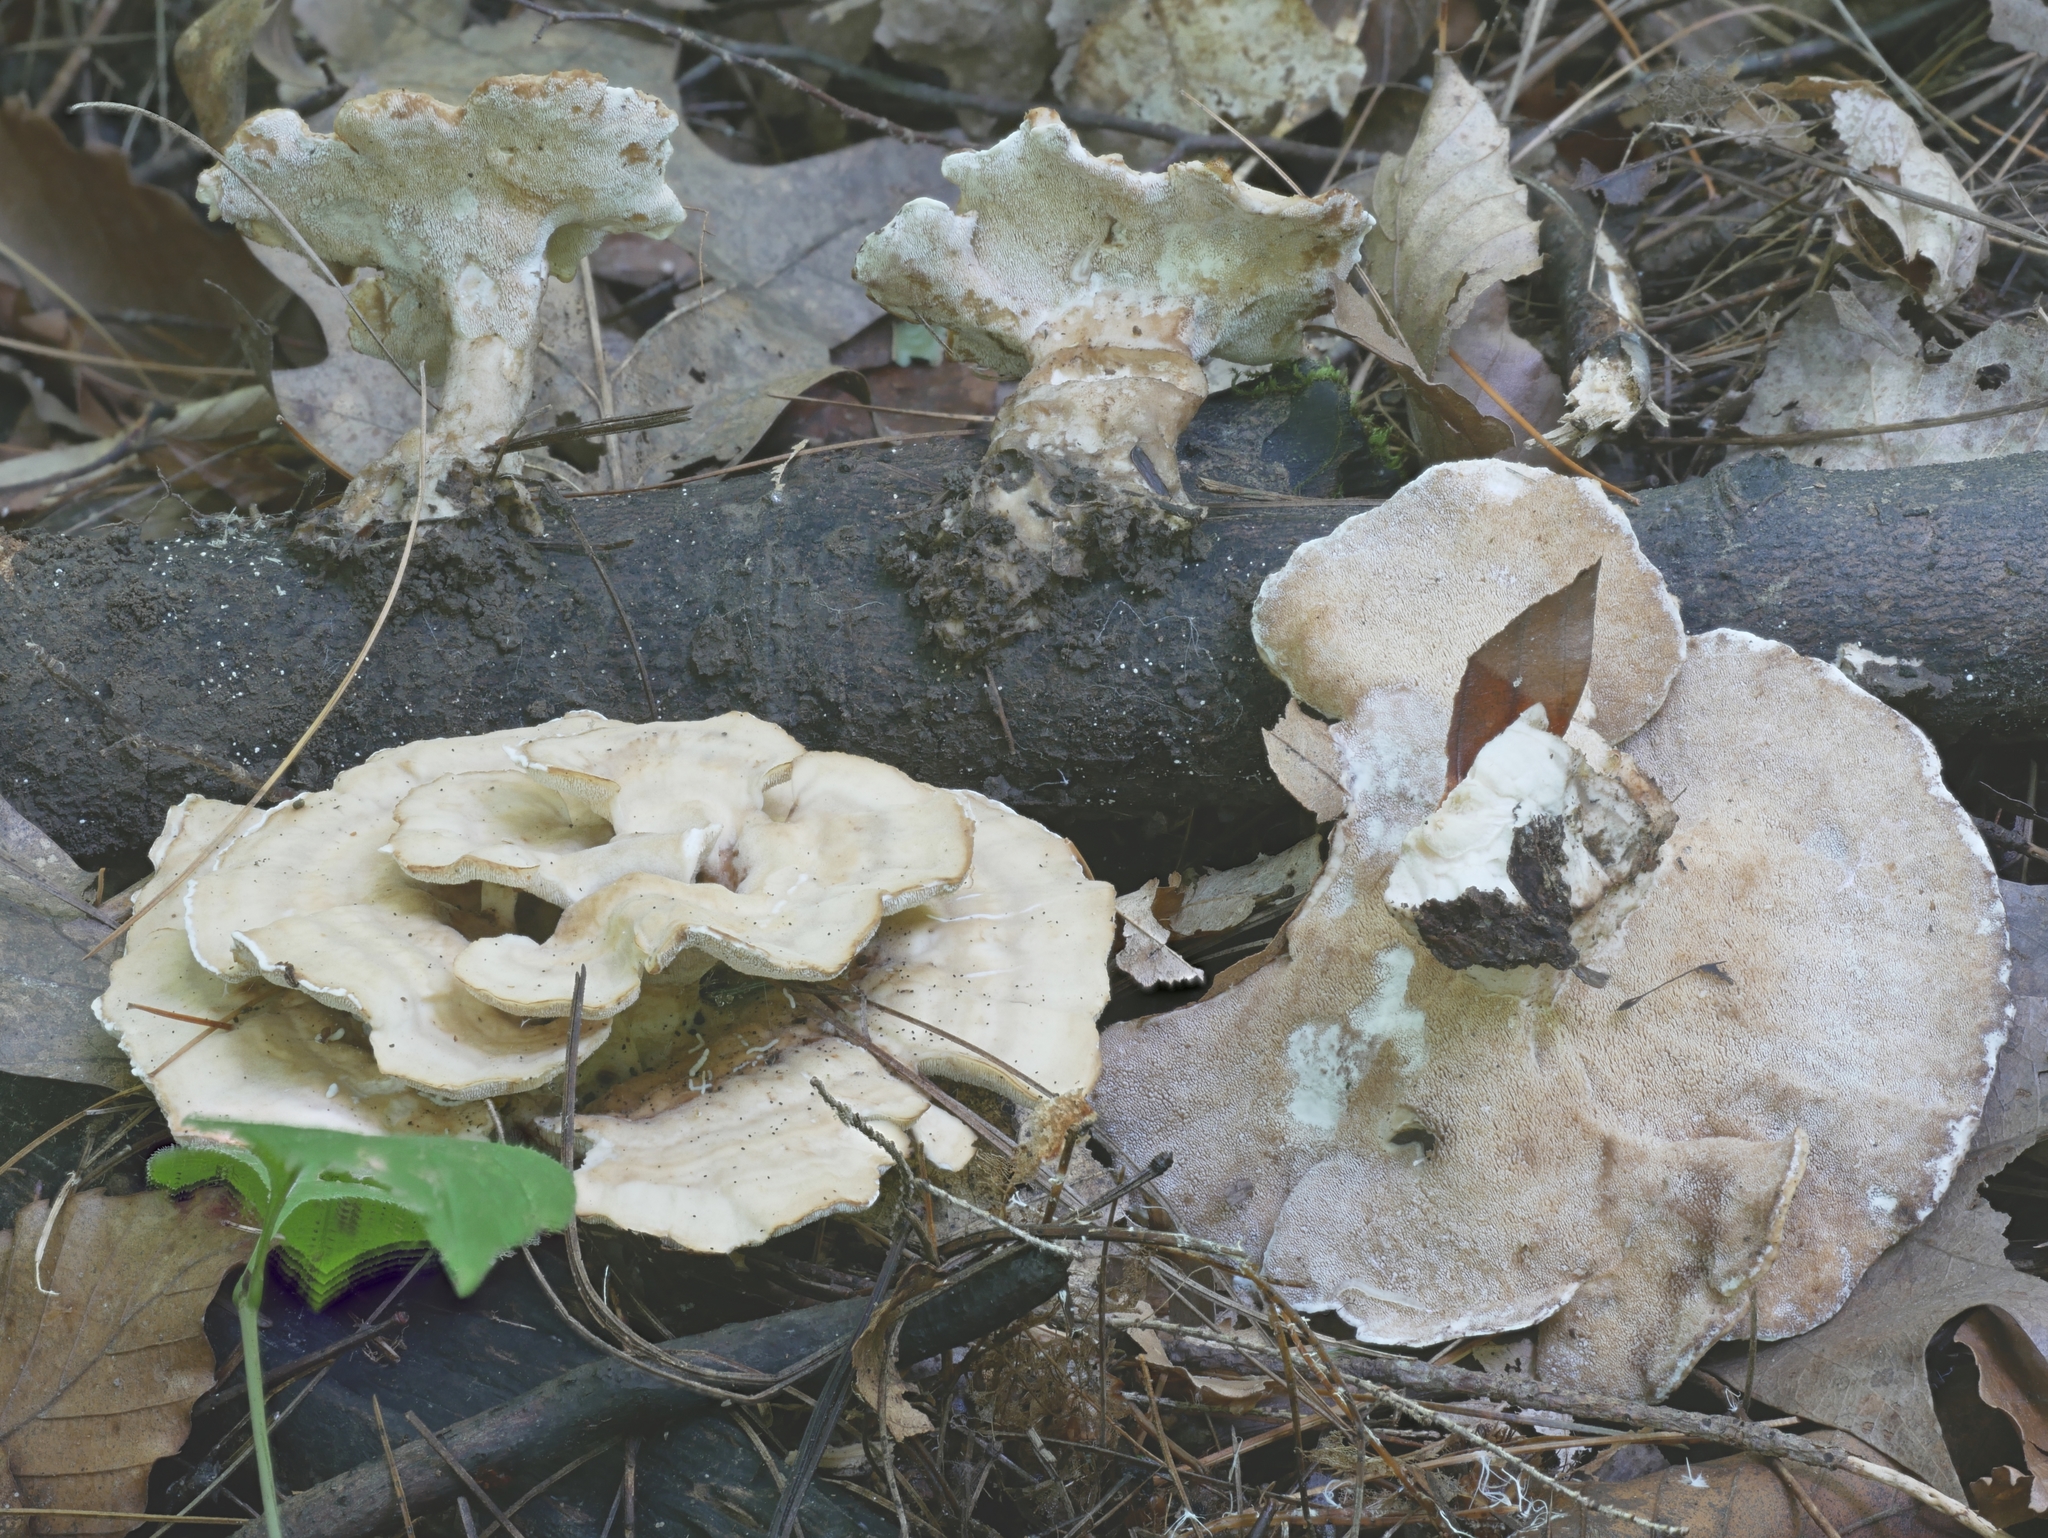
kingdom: Fungi
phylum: Basidiomycota
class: Agaricomycetes
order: Polyporales
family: Steccherinaceae
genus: Mycorrhaphium
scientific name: Mycorrhaphium adustum
